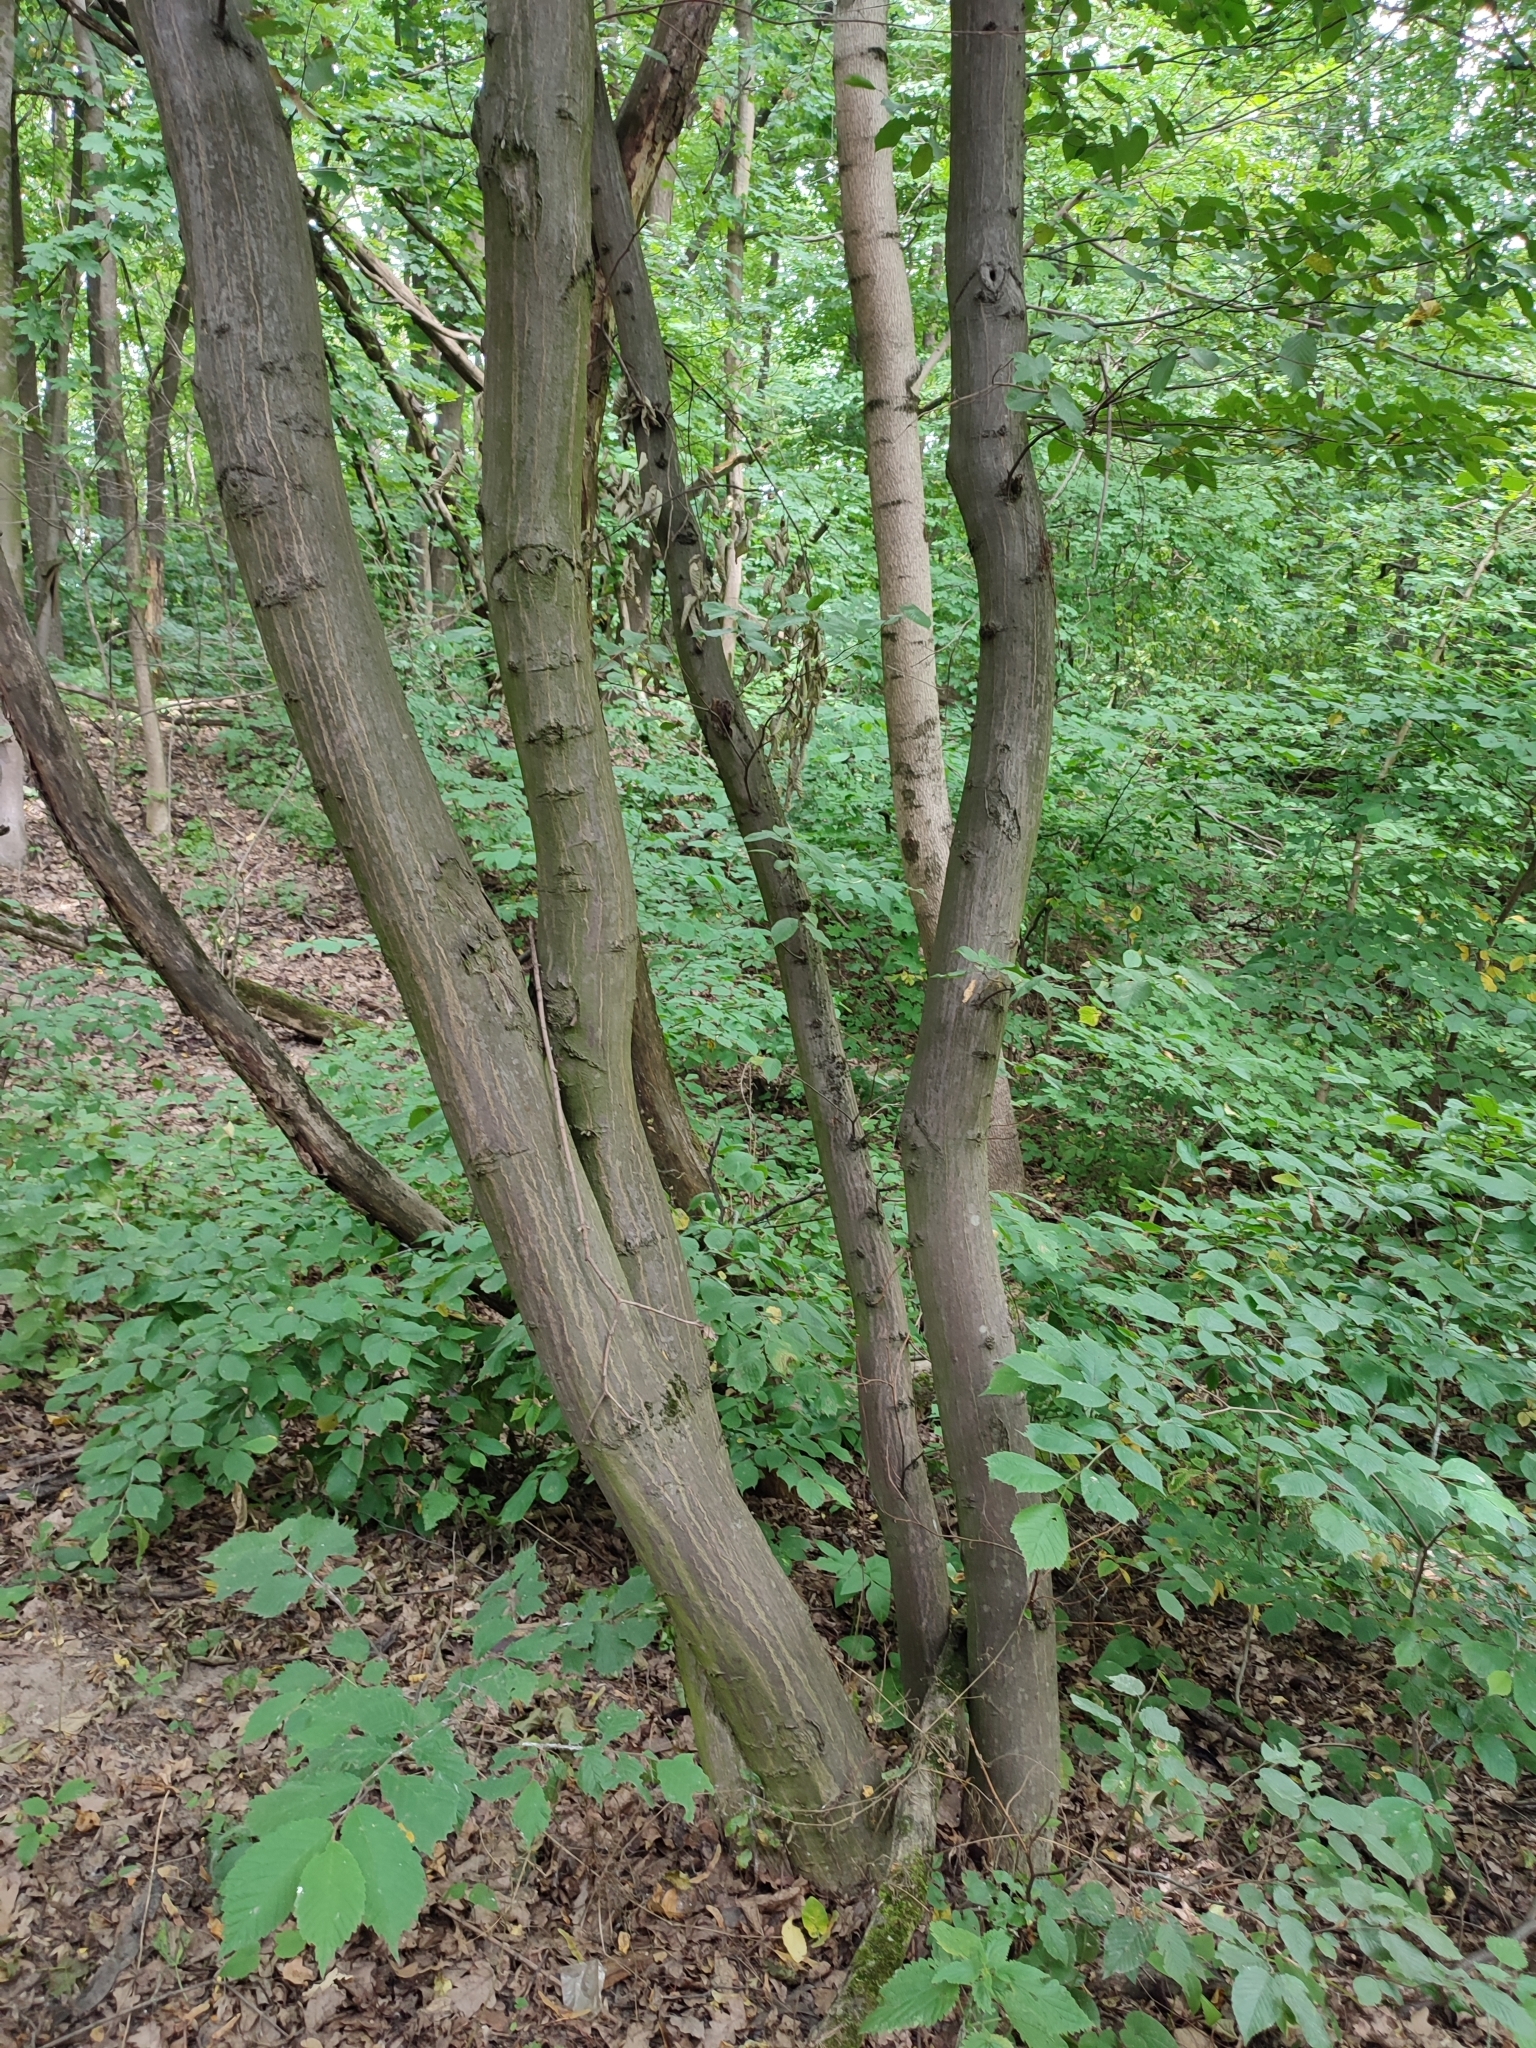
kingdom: Plantae
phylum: Tracheophyta
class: Magnoliopsida
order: Fagales
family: Betulaceae
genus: Carpinus
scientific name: Carpinus betulus
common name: Hornbeam
